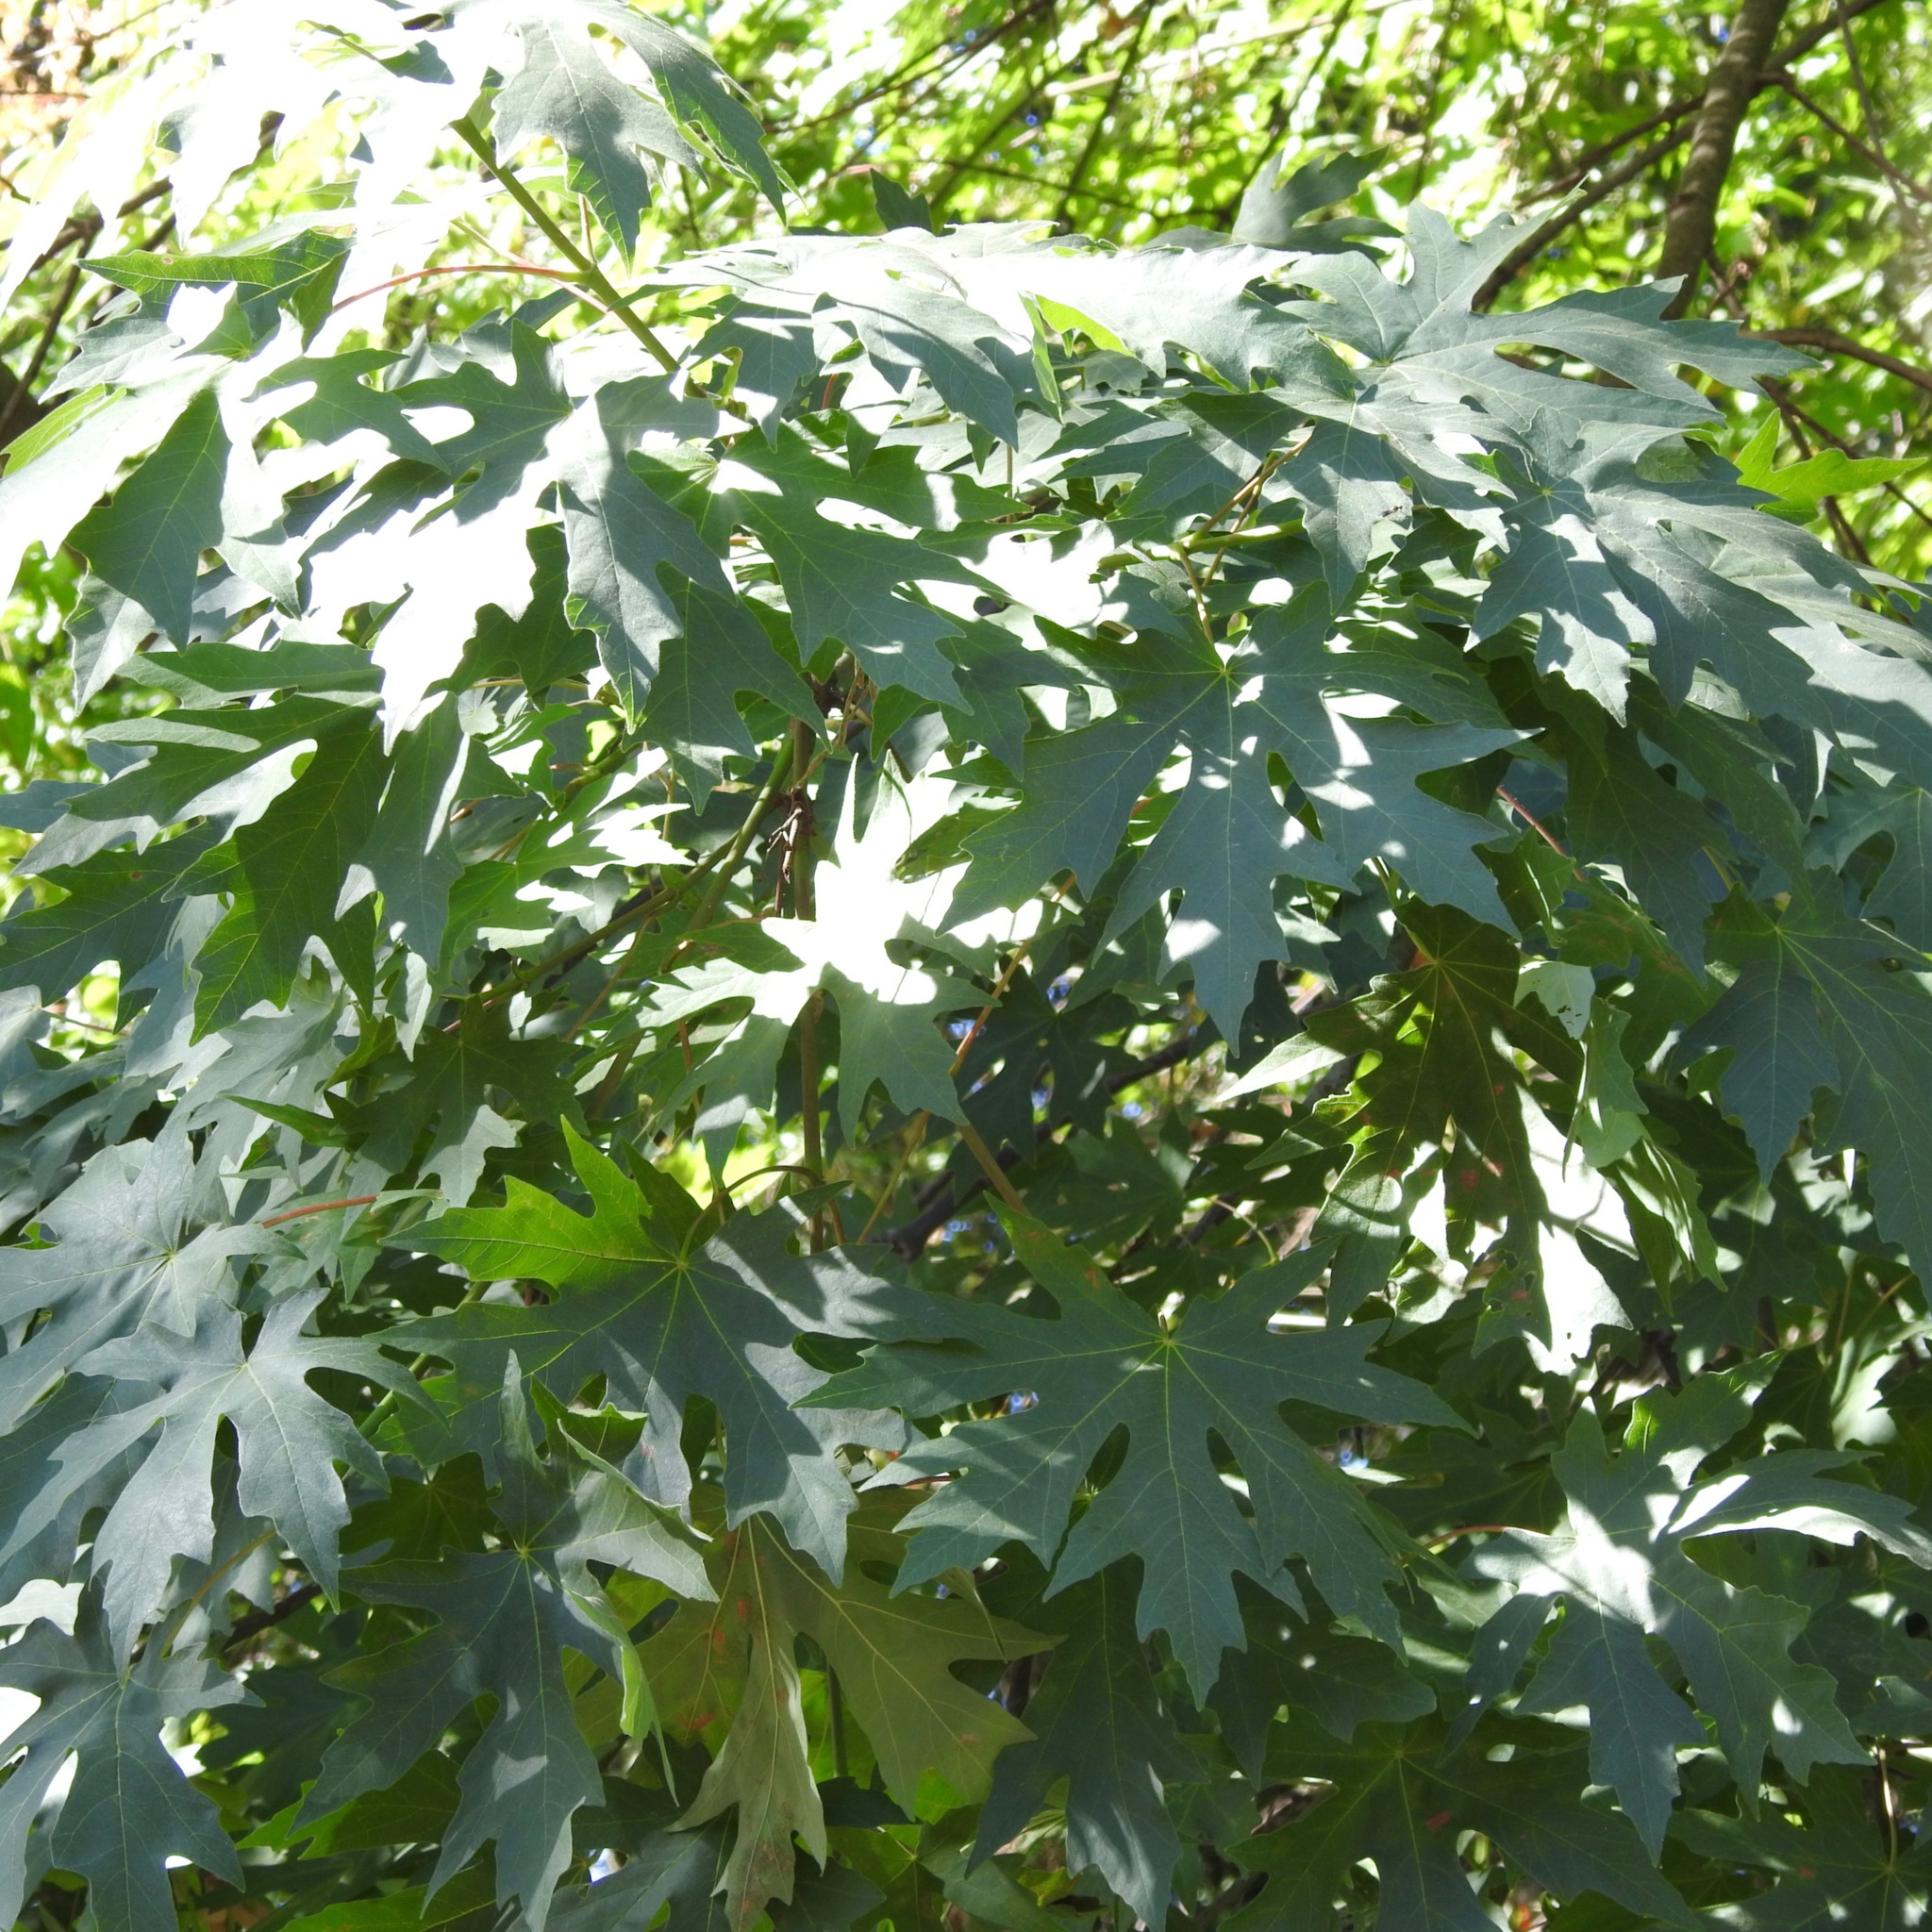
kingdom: Plantae
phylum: Tracheophyta
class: Magnoliopsida
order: Sapindales
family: Sapindaceae
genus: Acer
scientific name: Acer macrophyllum
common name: Oregon maple
